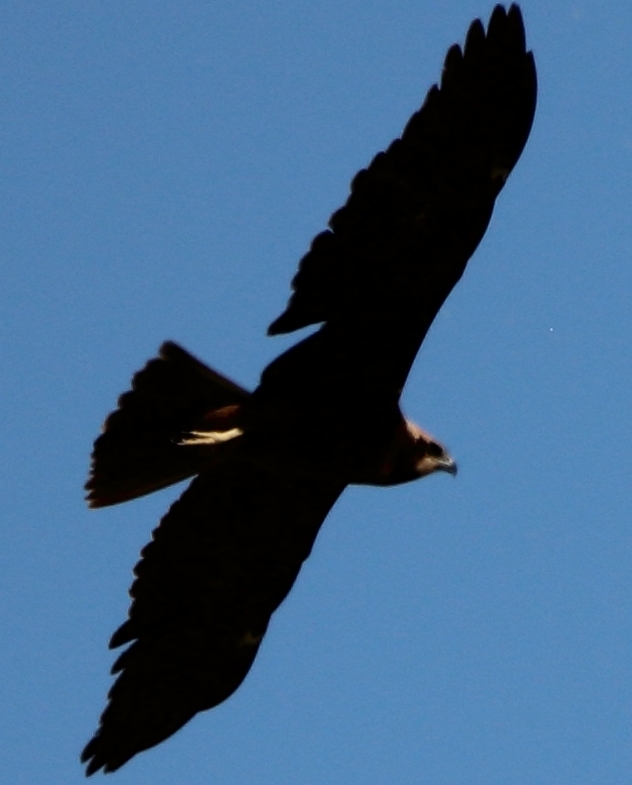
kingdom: Animalia
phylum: Chordata
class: Aves
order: Accipitriformes
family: Accipitridae
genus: Circus
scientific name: Circus aeruginosus
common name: Western marsh harrier
